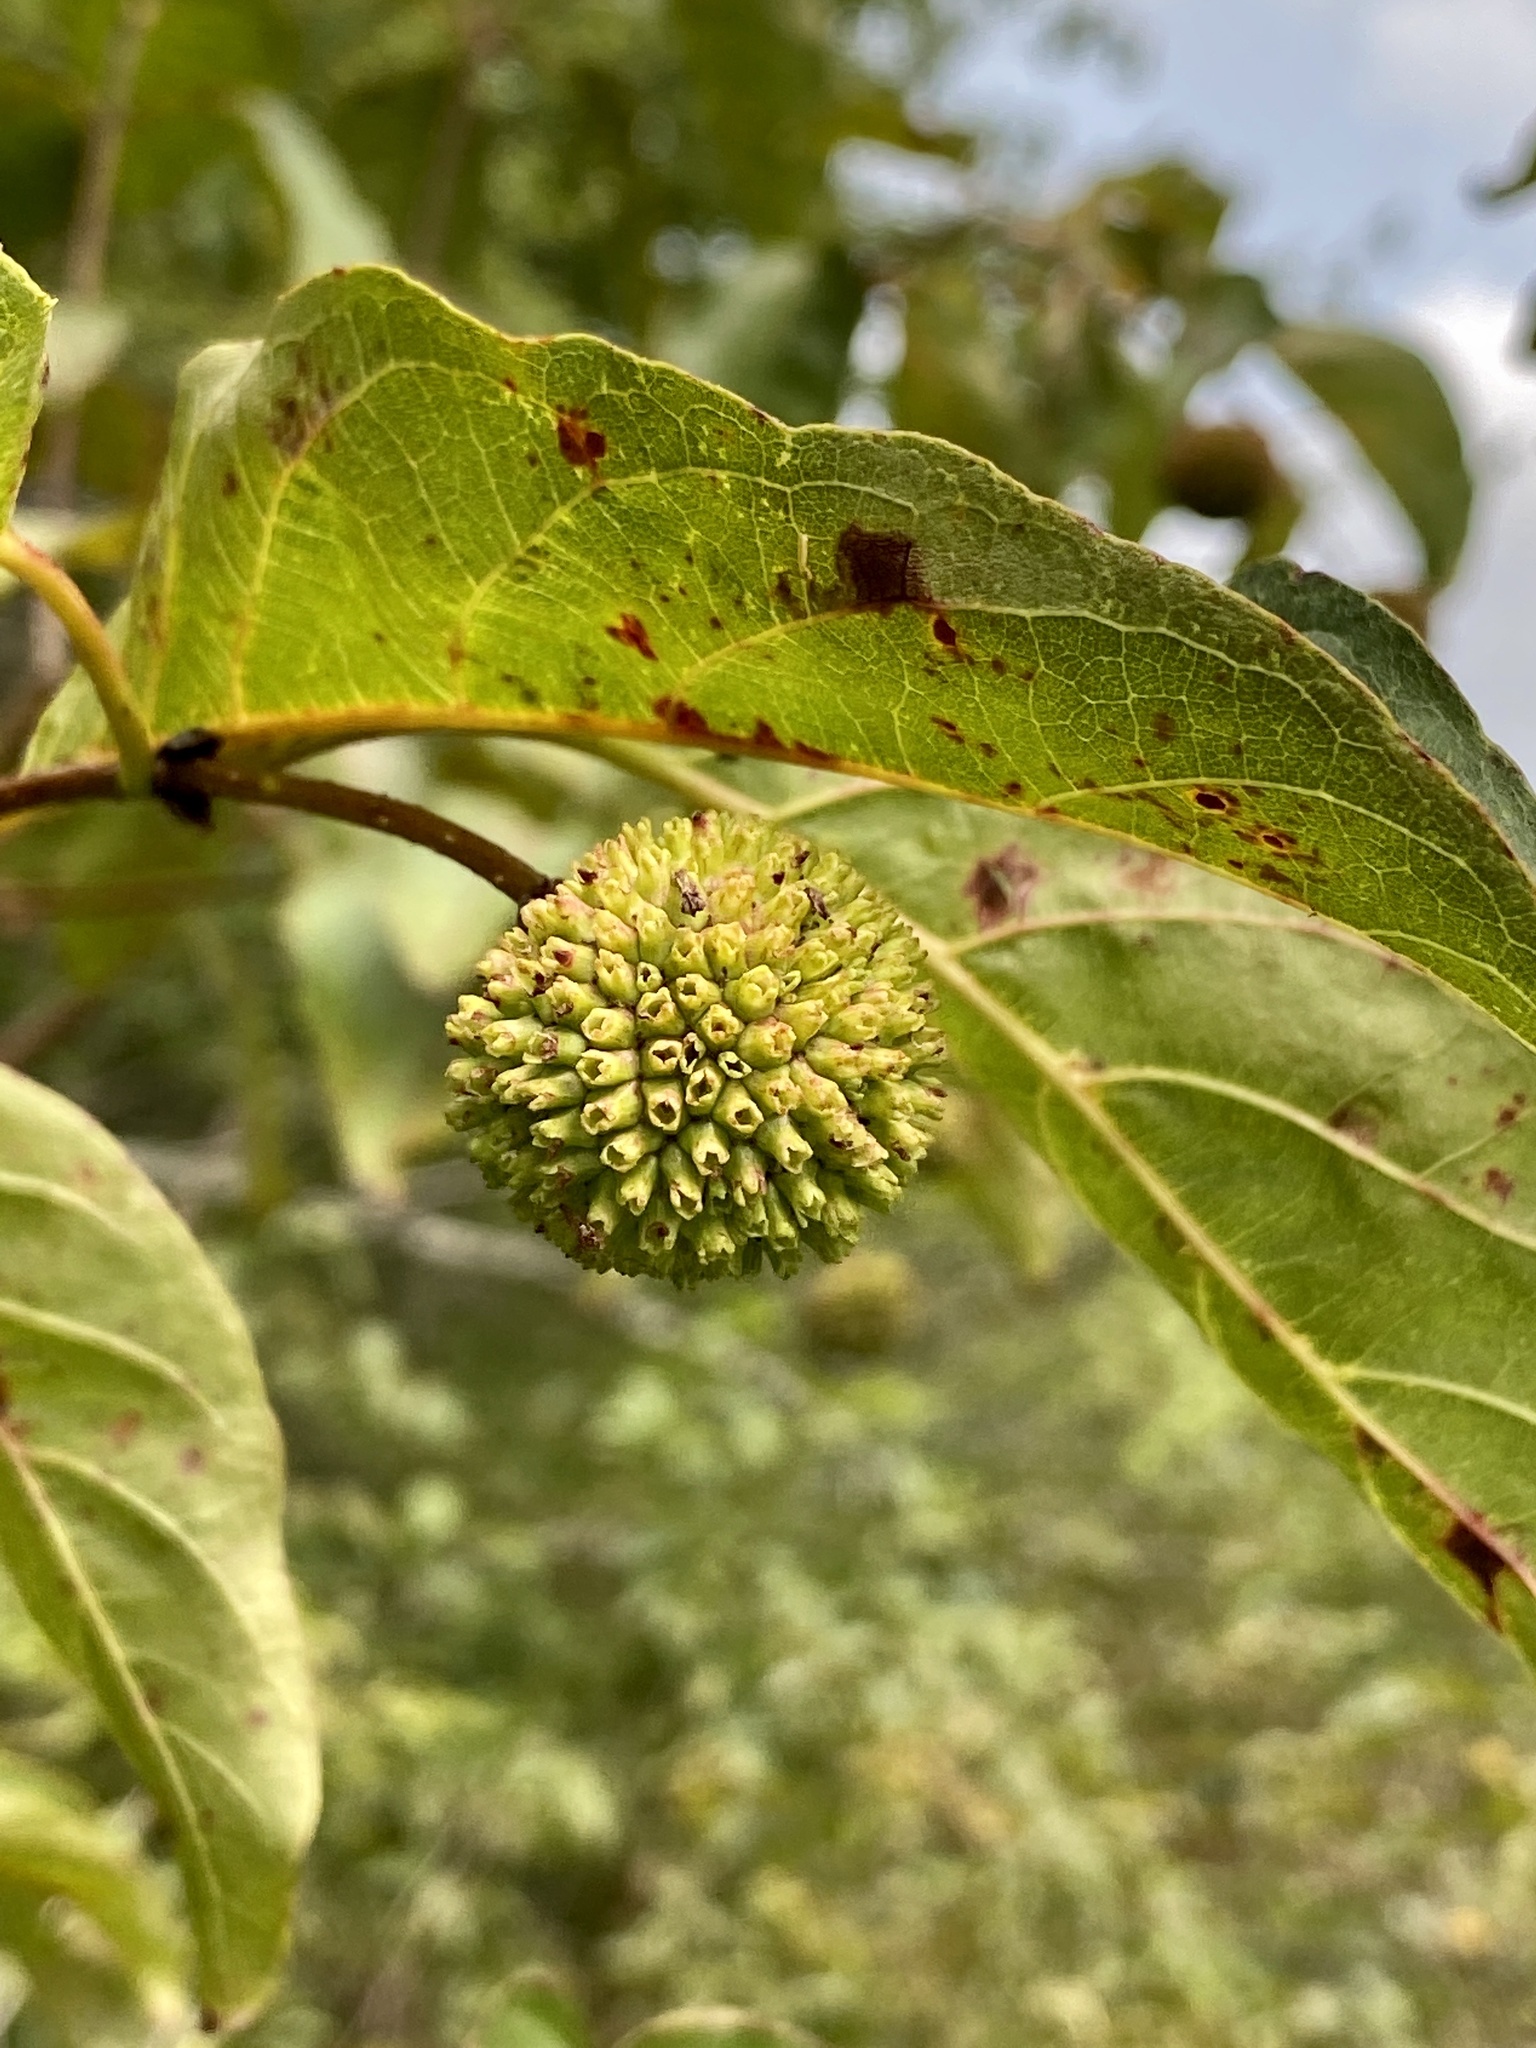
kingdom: Plantae
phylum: Tracheophyta
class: Magnoliopsida
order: Gentianales
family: Rubiaceae
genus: Cephalanthus
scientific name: Cephalanthus occidentalis
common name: Button-willow
